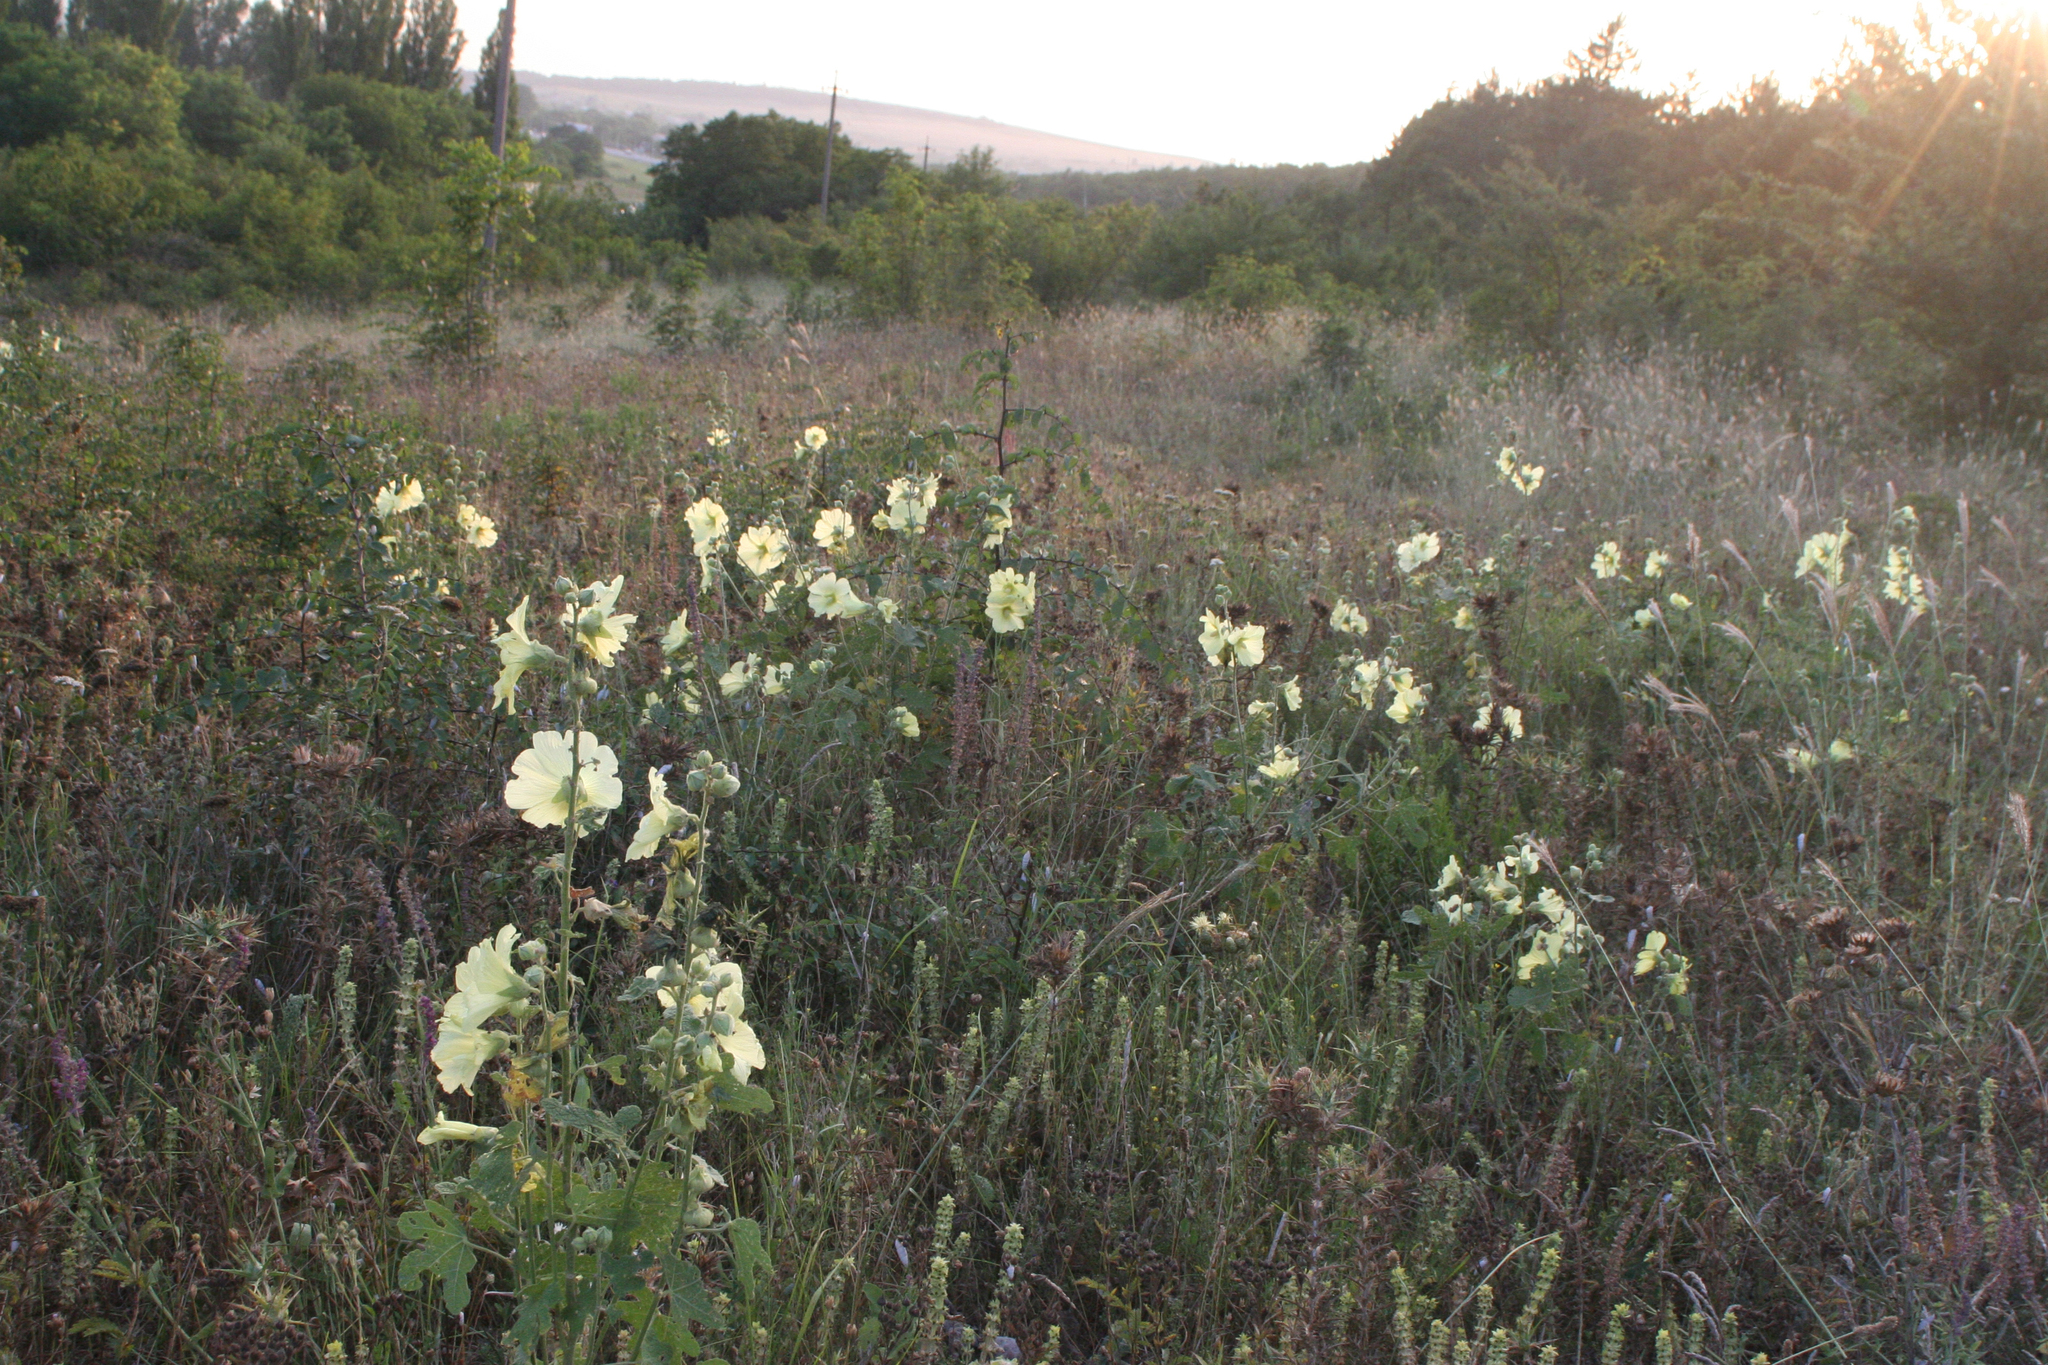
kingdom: Plantae
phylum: Tracheophyta
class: Magnoliopsida
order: Malvales
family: Malvaceae
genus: Alcea
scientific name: Alcea rugosa
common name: Russian hollyhock
